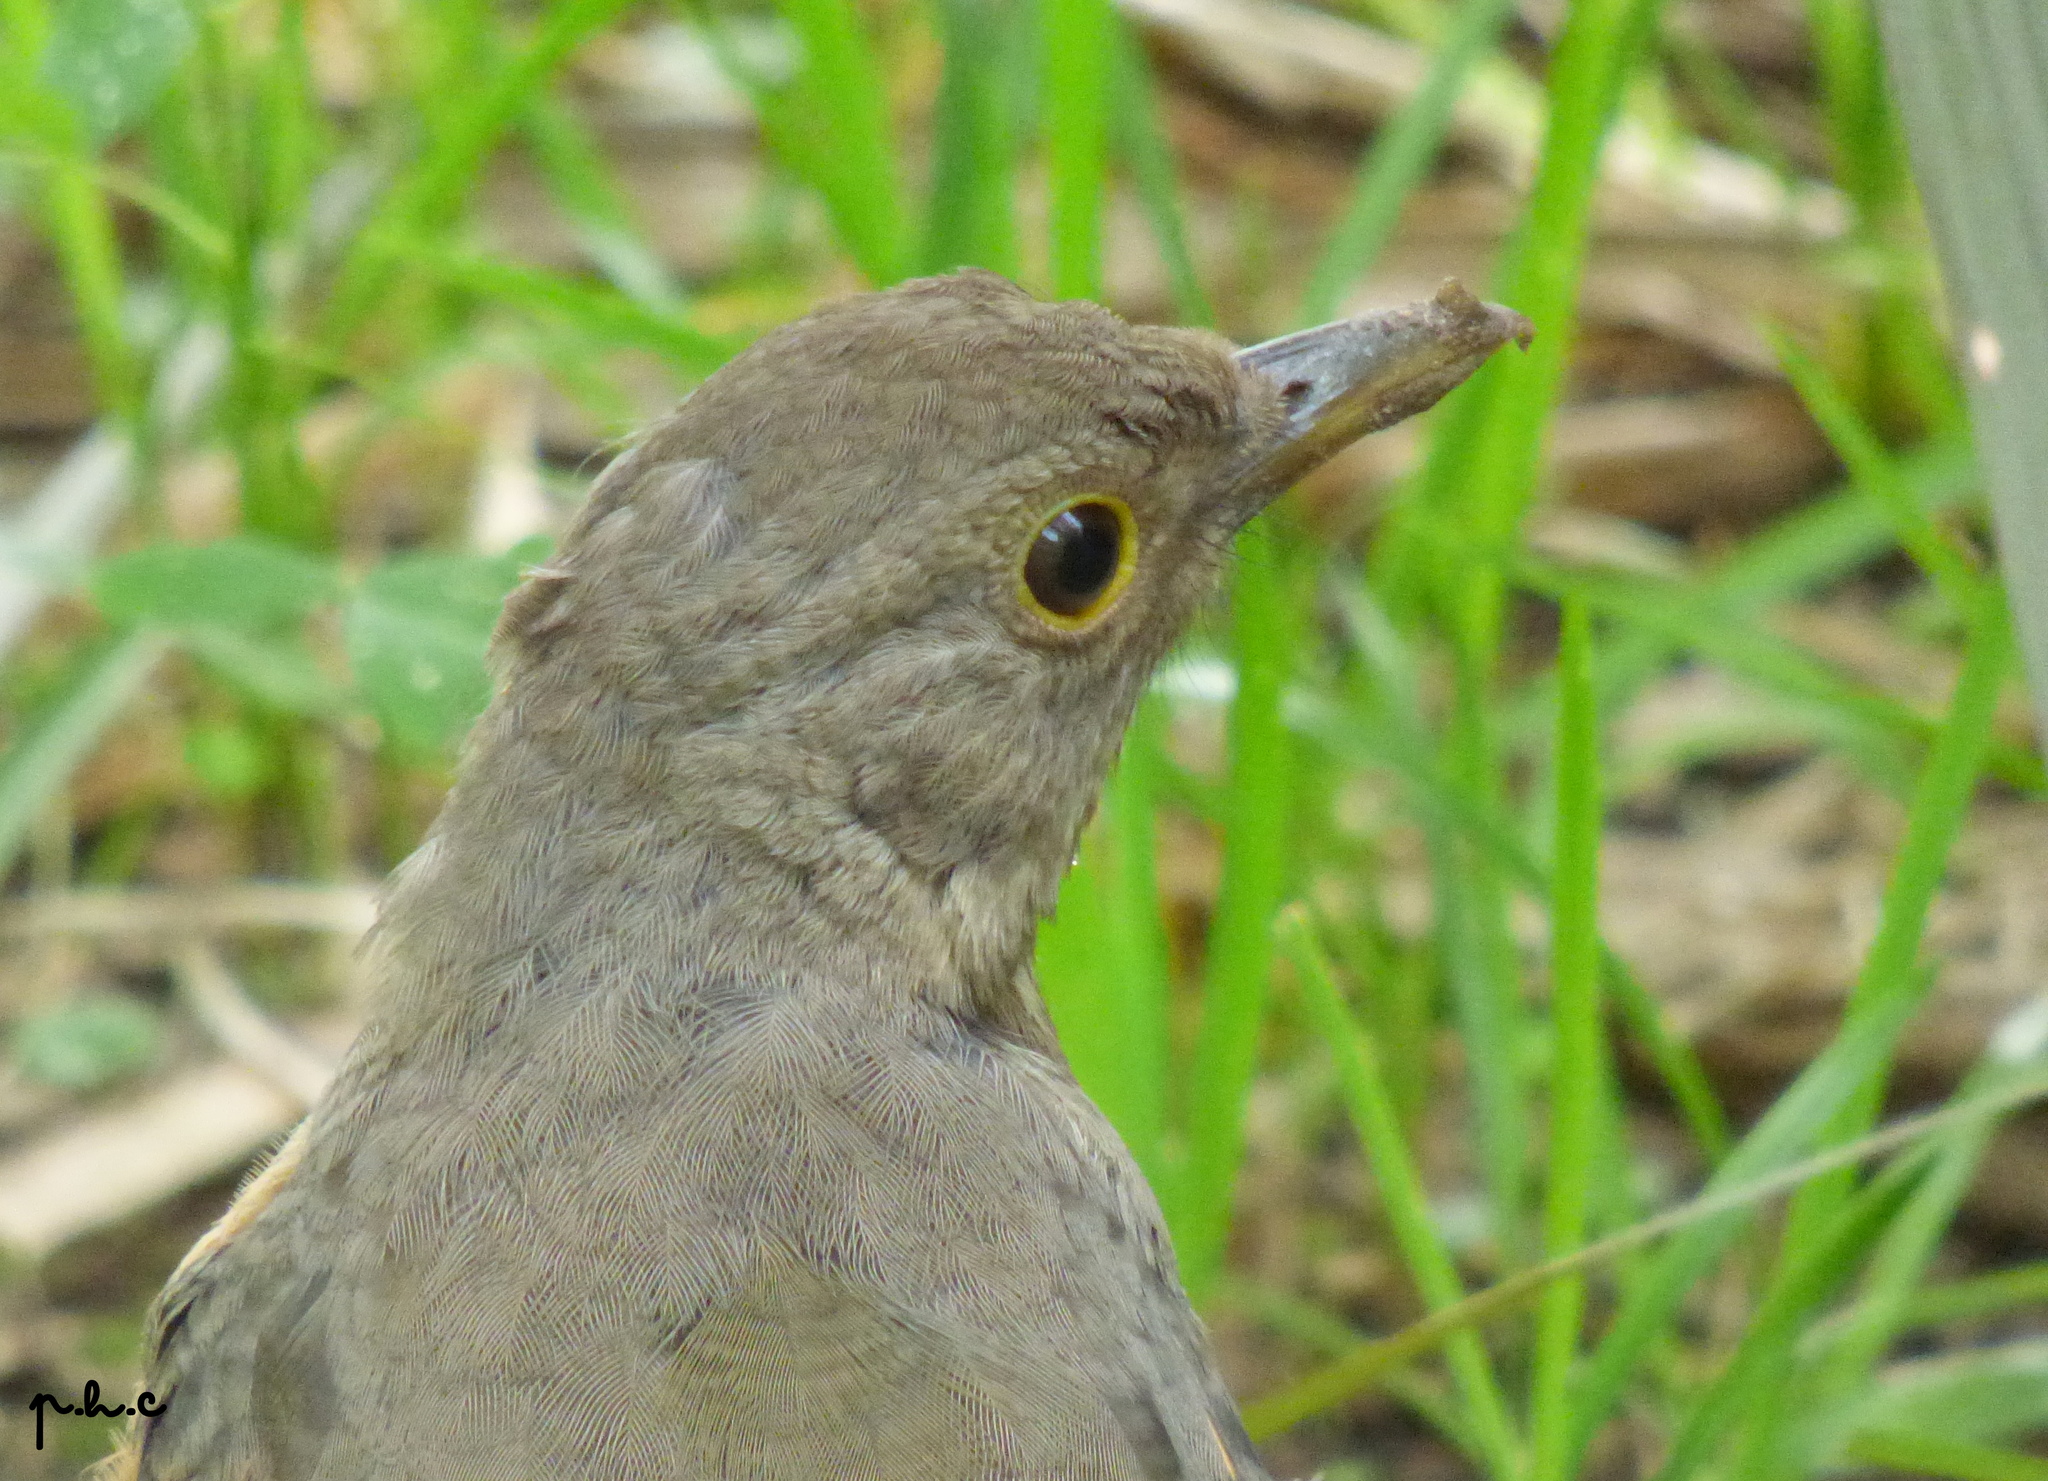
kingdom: Animalia
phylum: Chordata
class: Aves
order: Passeriformes
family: Turdidae
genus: Turdus
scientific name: Turdus rufiventris
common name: Rufous-bellied thrush
